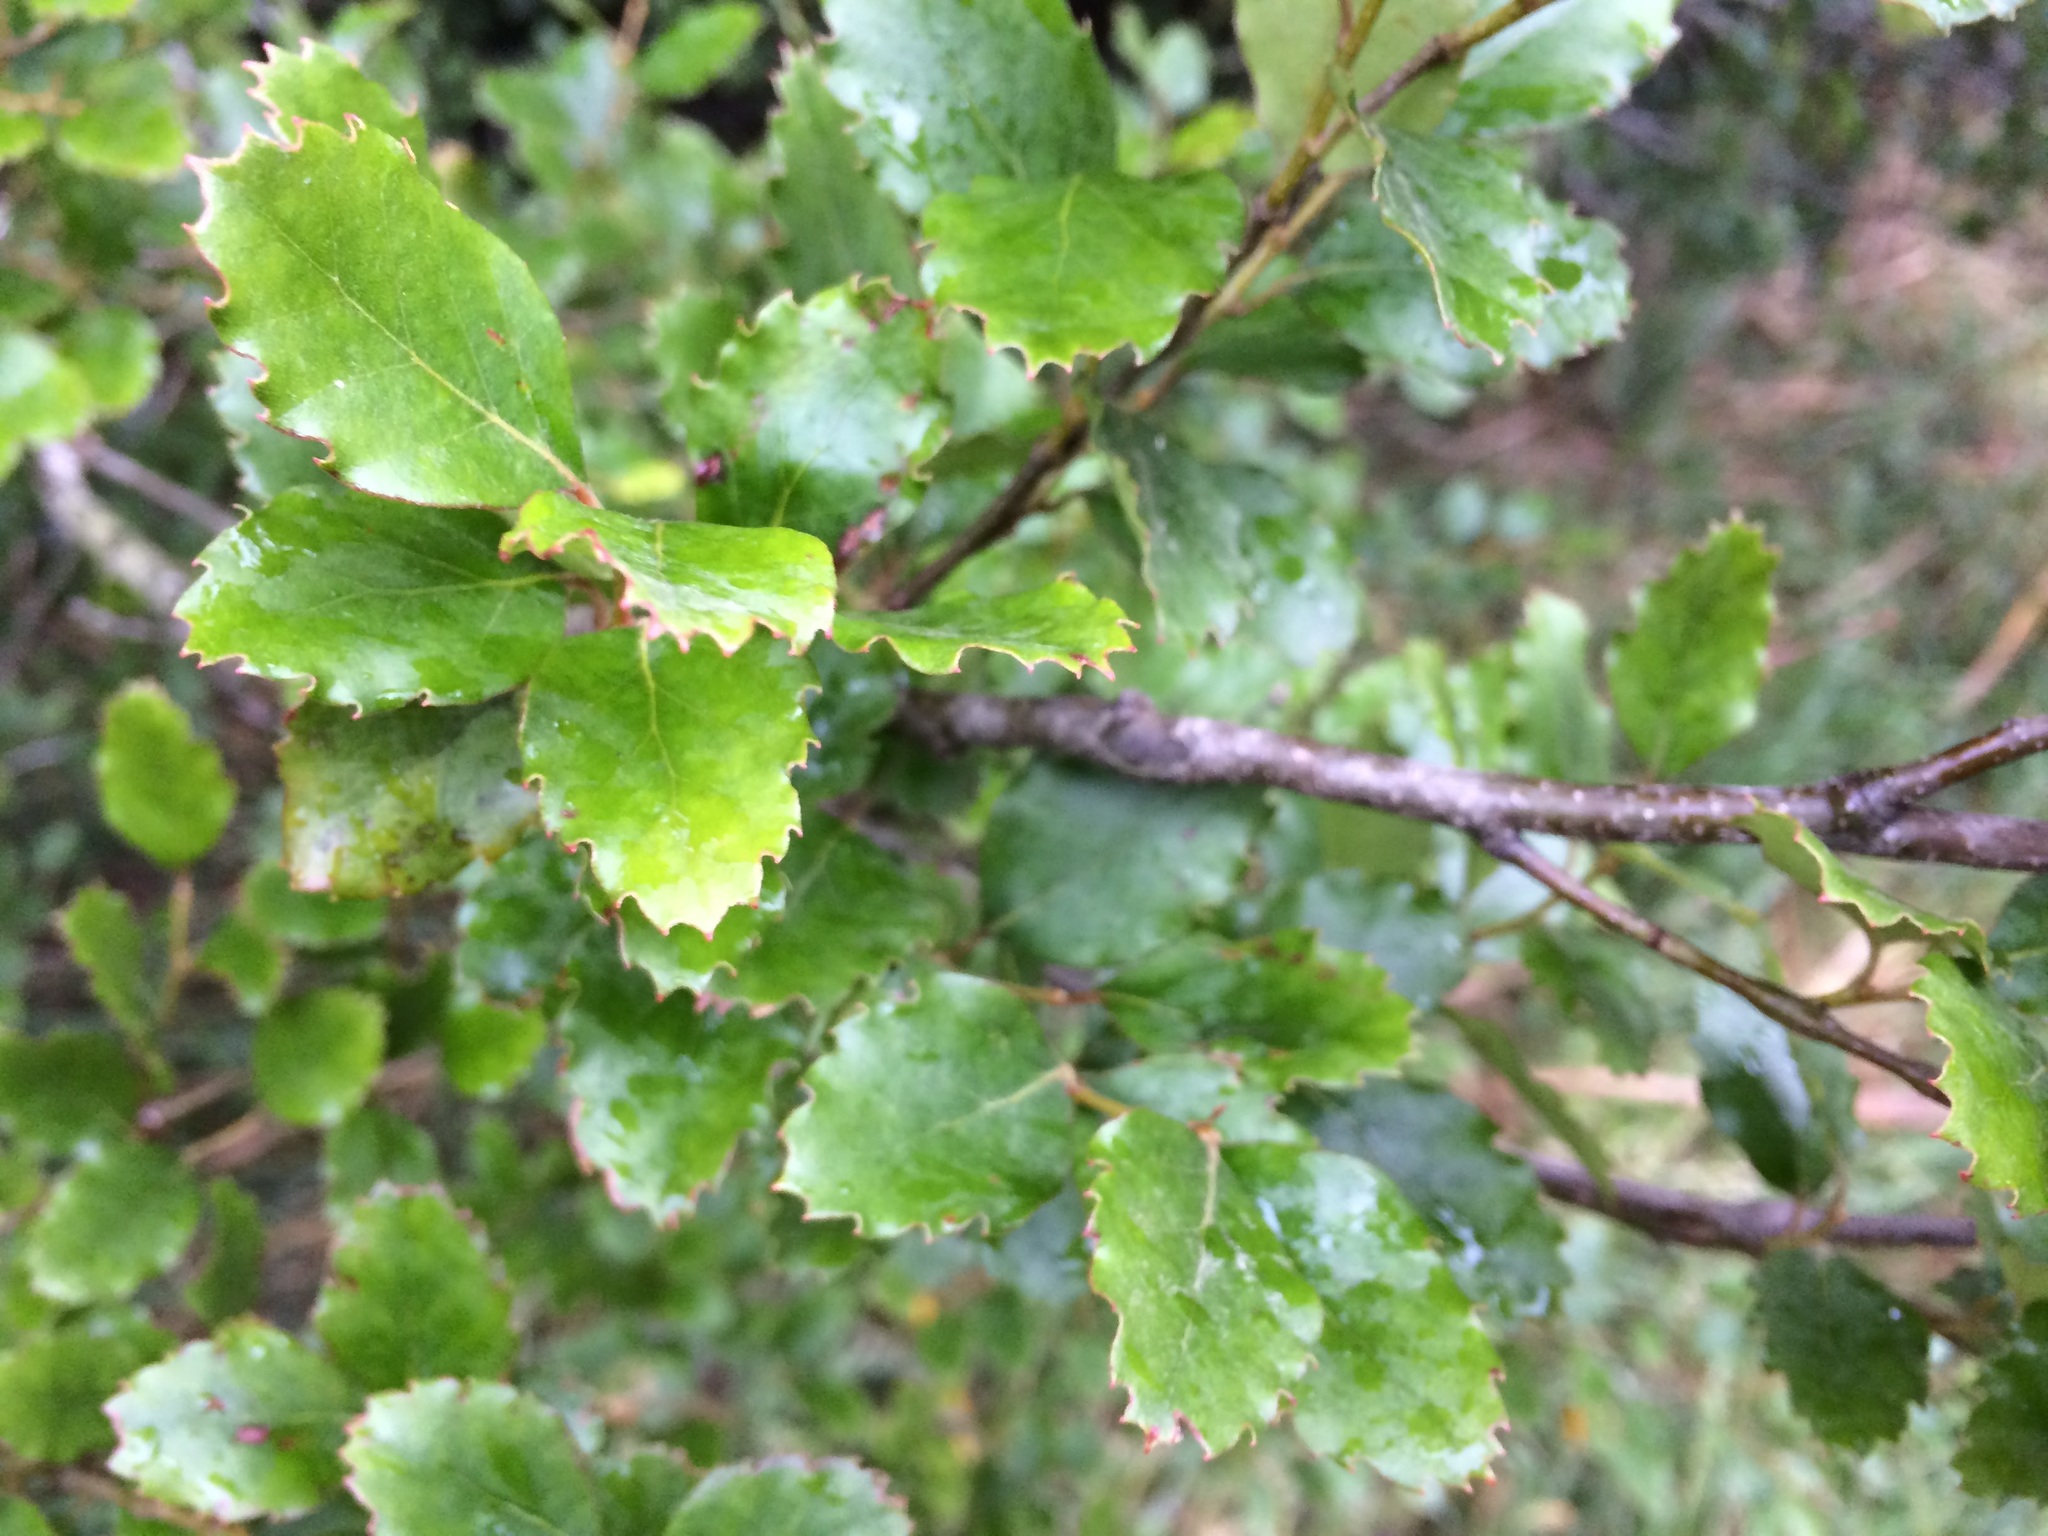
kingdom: Plantae
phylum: Tracheophyta
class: Magnoliopsida
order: Fagales
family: Nothofagaceae
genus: Nothofagus
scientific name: Nothofagus fusca
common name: Red beech
